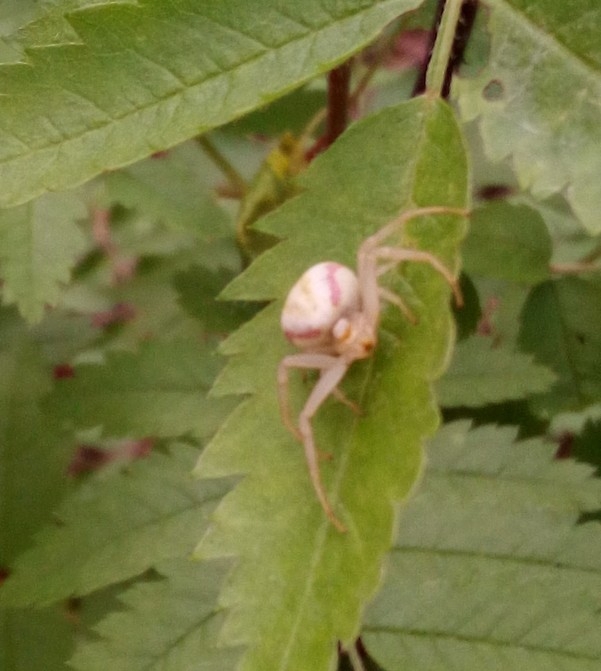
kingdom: Animalia
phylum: Arthropoda
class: Arachnida
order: Araneae
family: Thomisidae
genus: Misumena
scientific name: Misumena vatia
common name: Goldenrod crab spider
